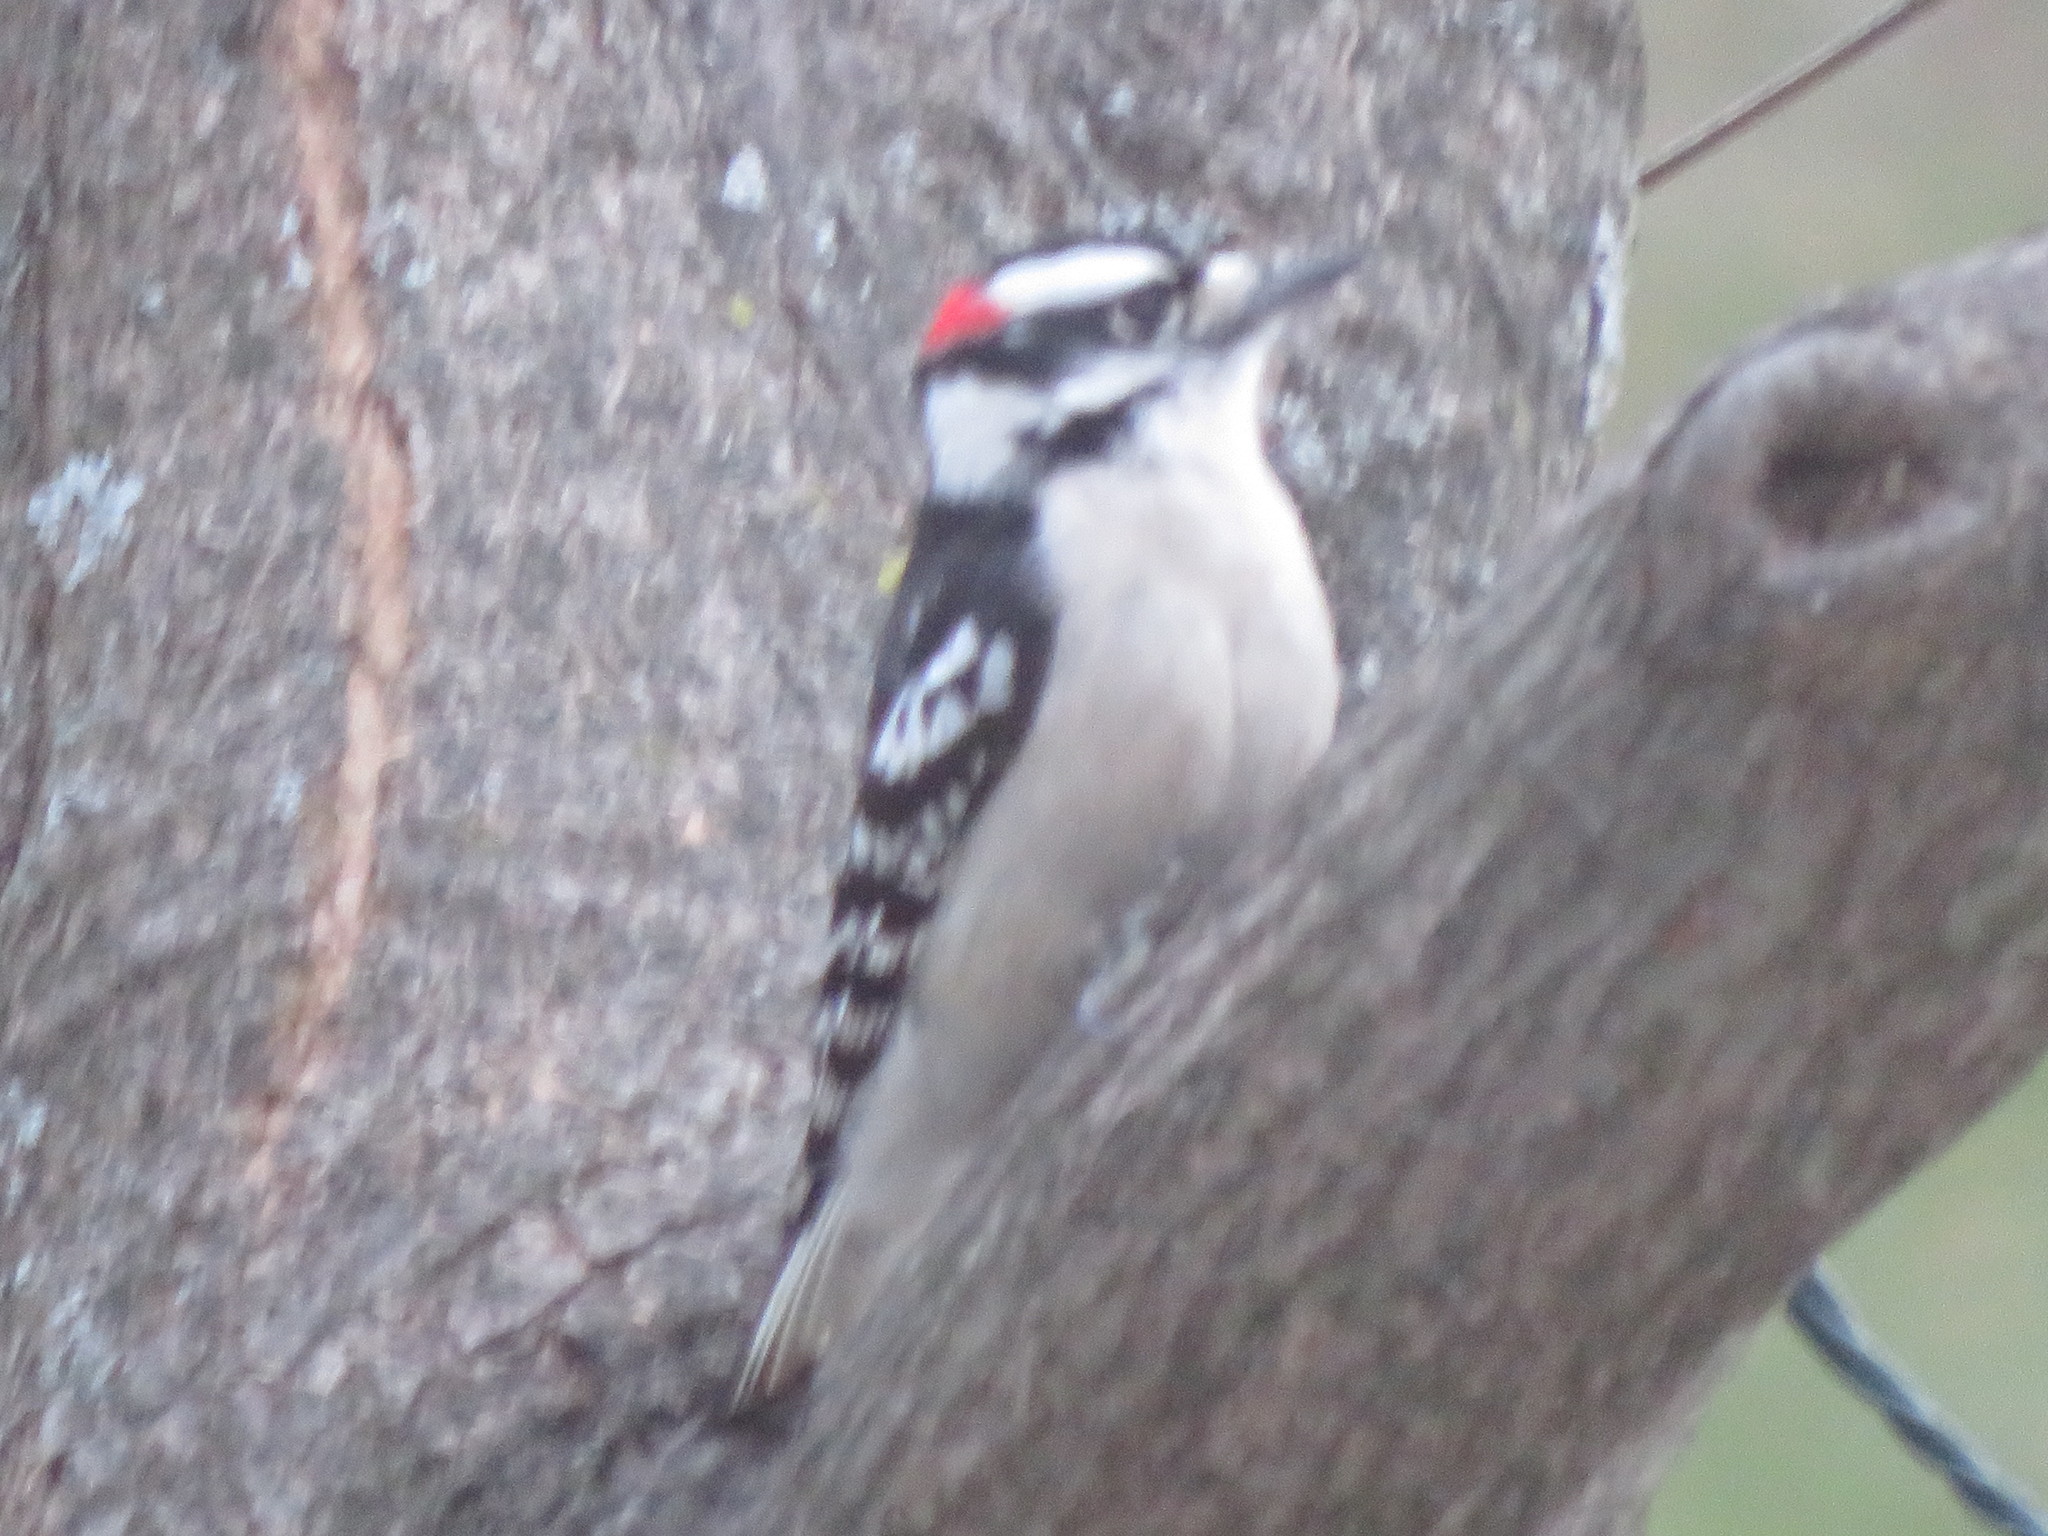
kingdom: Animalia
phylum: Chordata
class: Aves
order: Piciformes
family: Picidae
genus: Dryobates
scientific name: Dryobates pubescens
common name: Downy woodpecker
